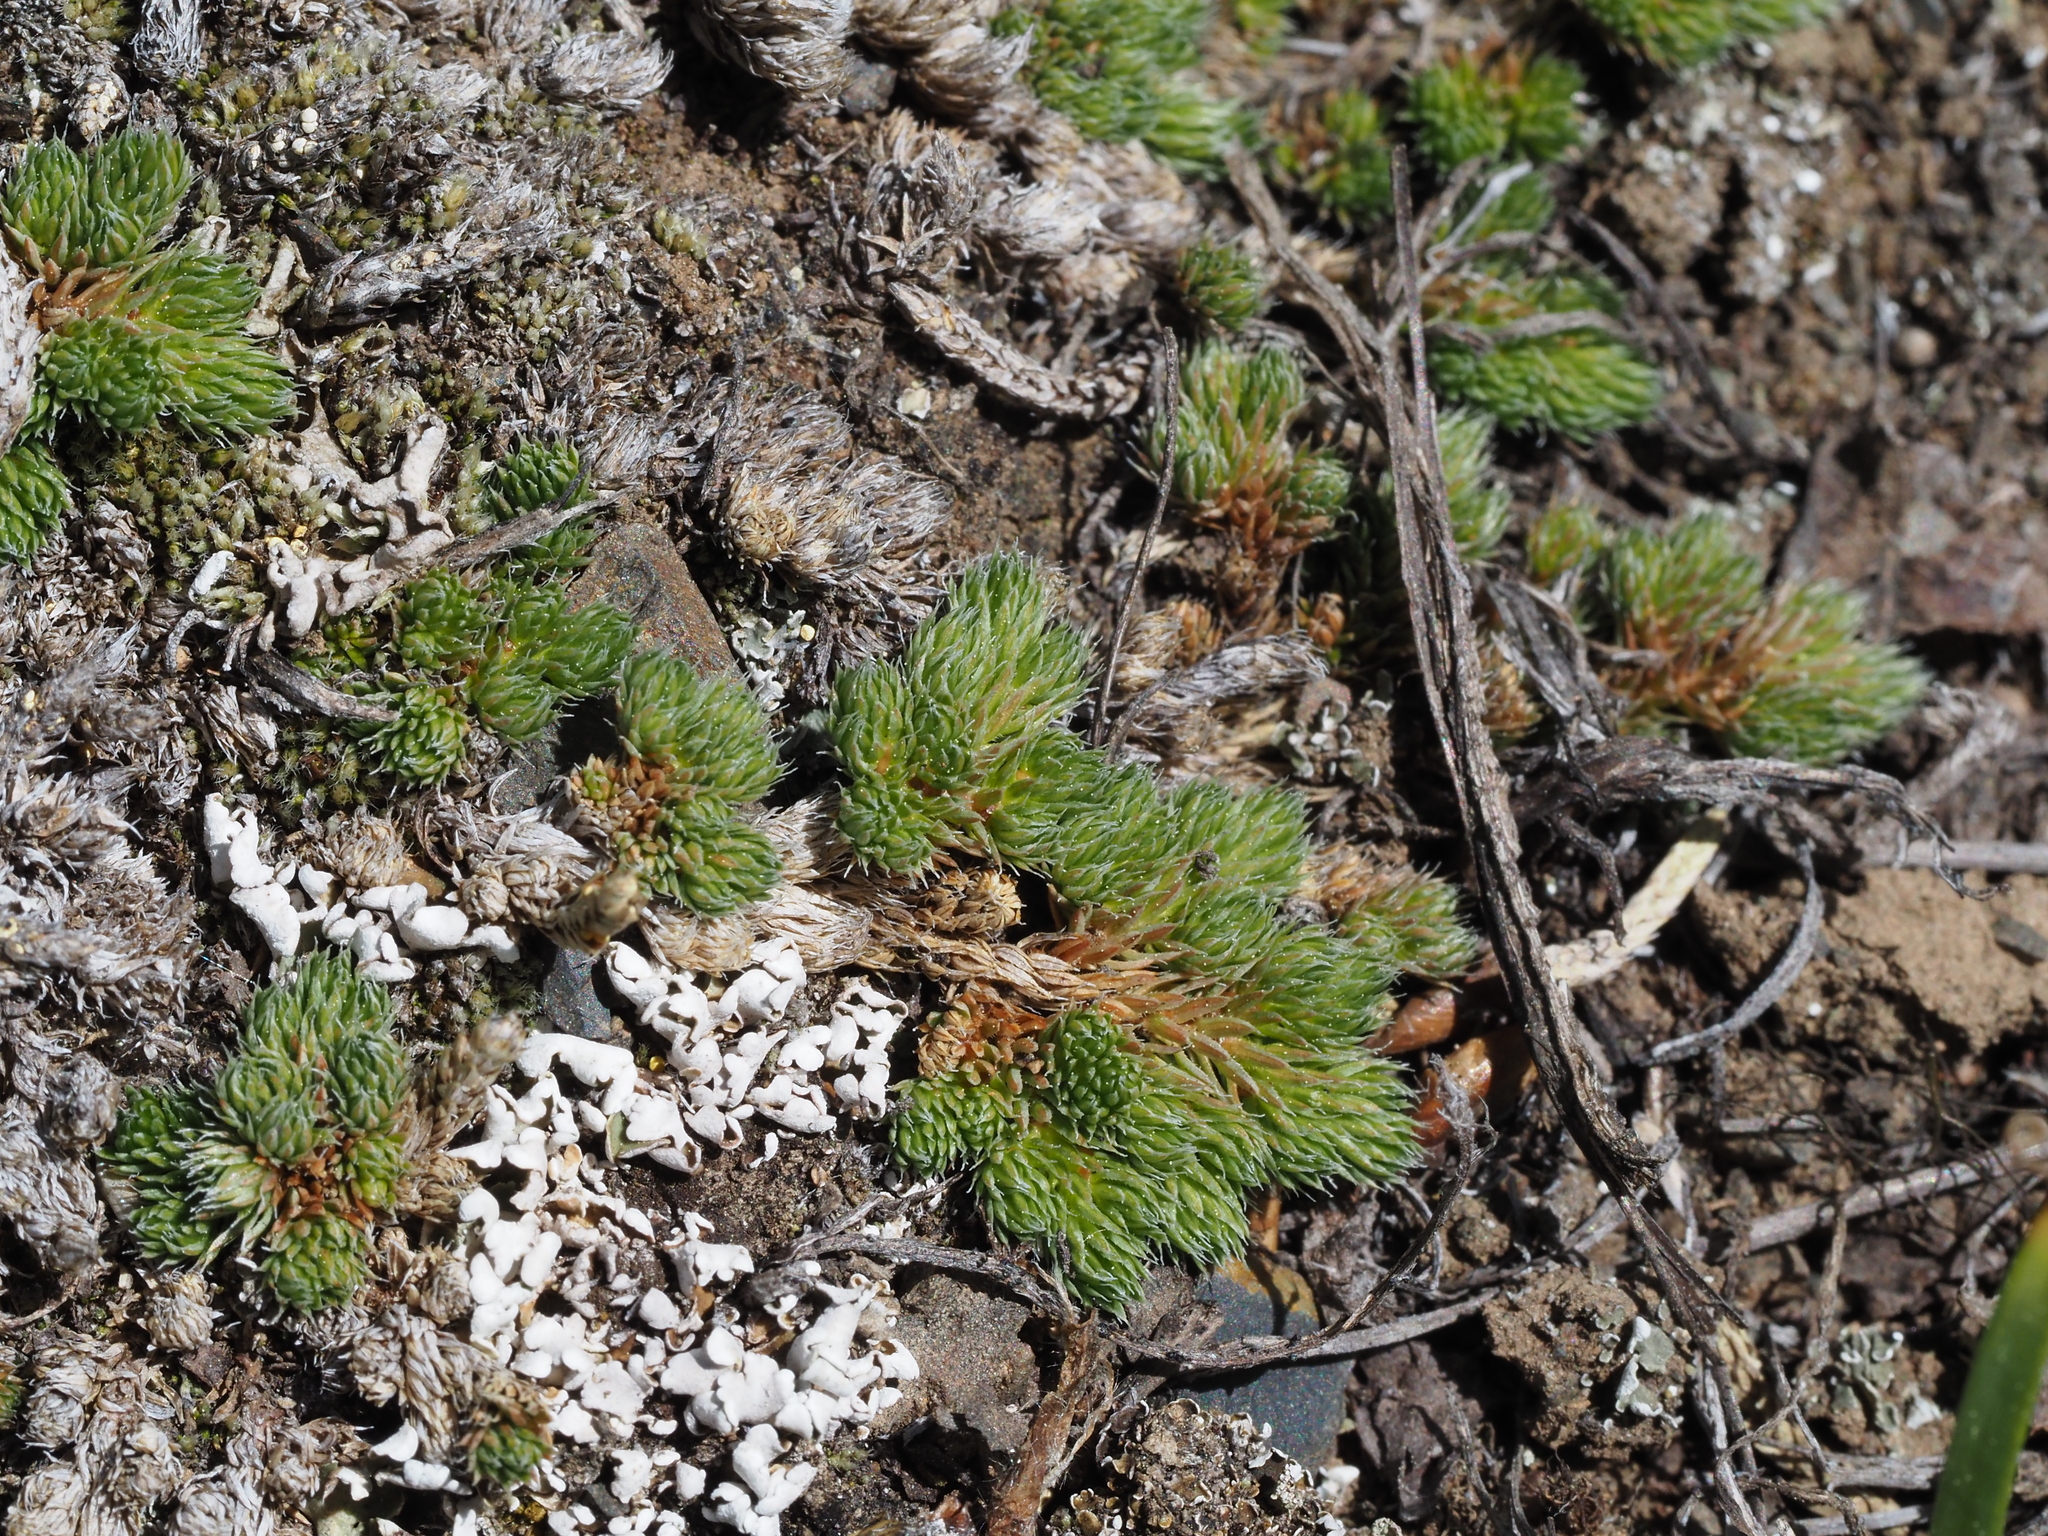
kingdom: Plantae
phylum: Tracheophyta
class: Lycopodiopsida
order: Selaginellales
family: Selaginellaceae
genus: Selaginella
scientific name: Selaginella densa
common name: Mountain spike-moss
